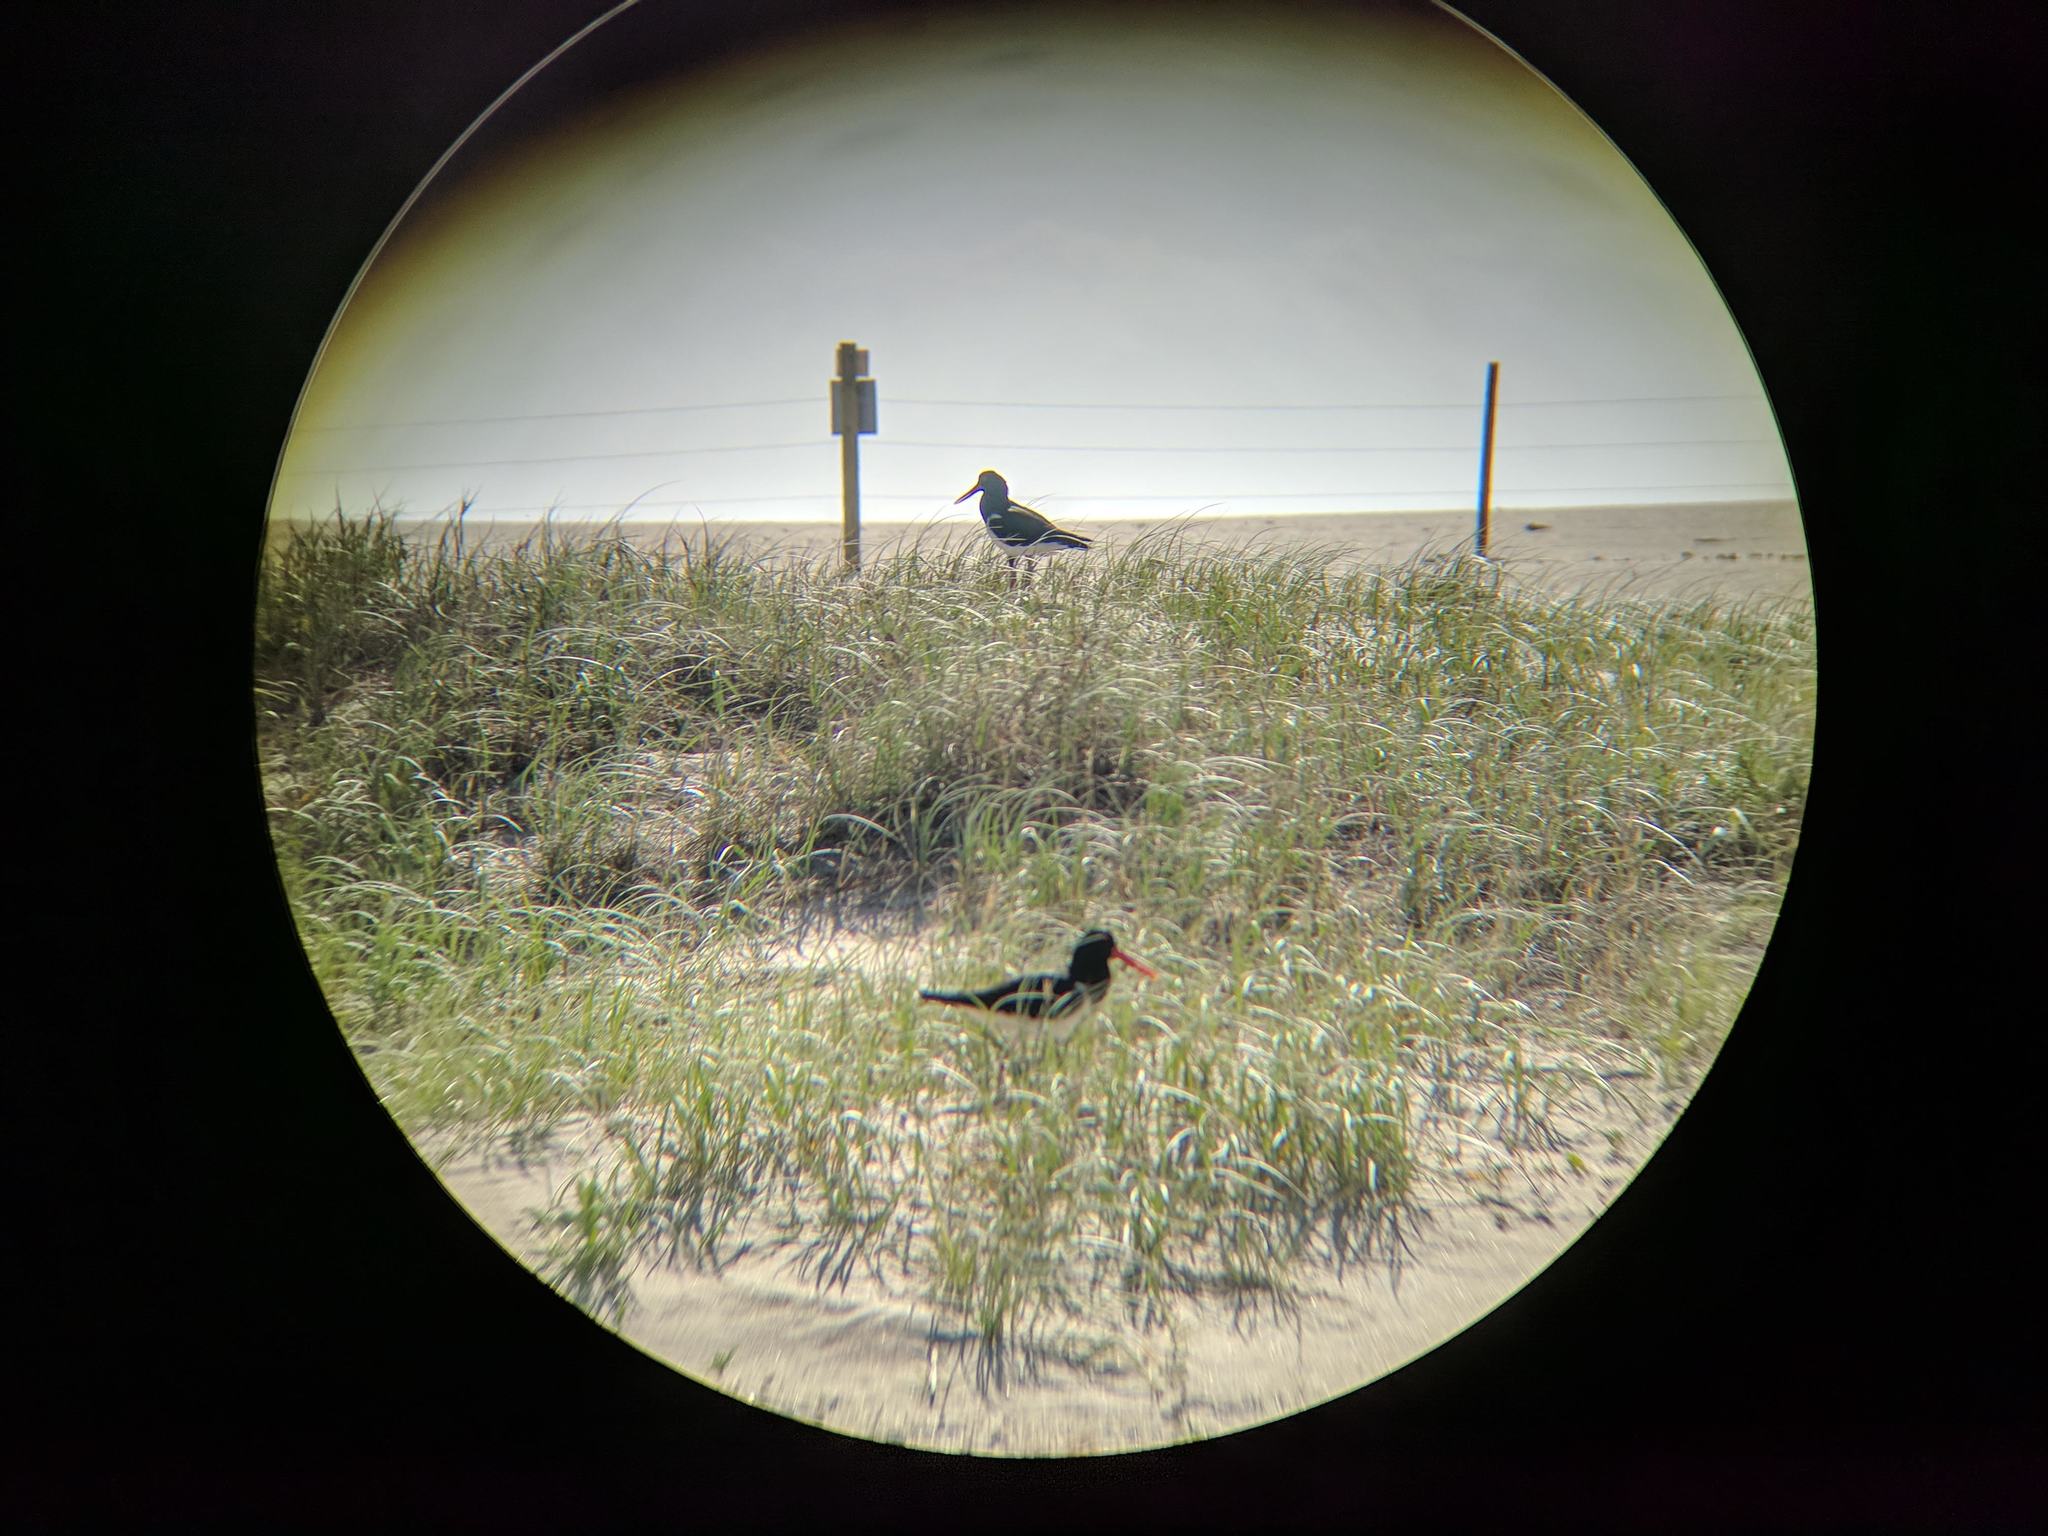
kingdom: Animalia
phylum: Chordata
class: Aves
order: Charadriiformes
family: Haematopodidae
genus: Haematopus
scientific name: Haematopus longirostris
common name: Pied oystercatcher
